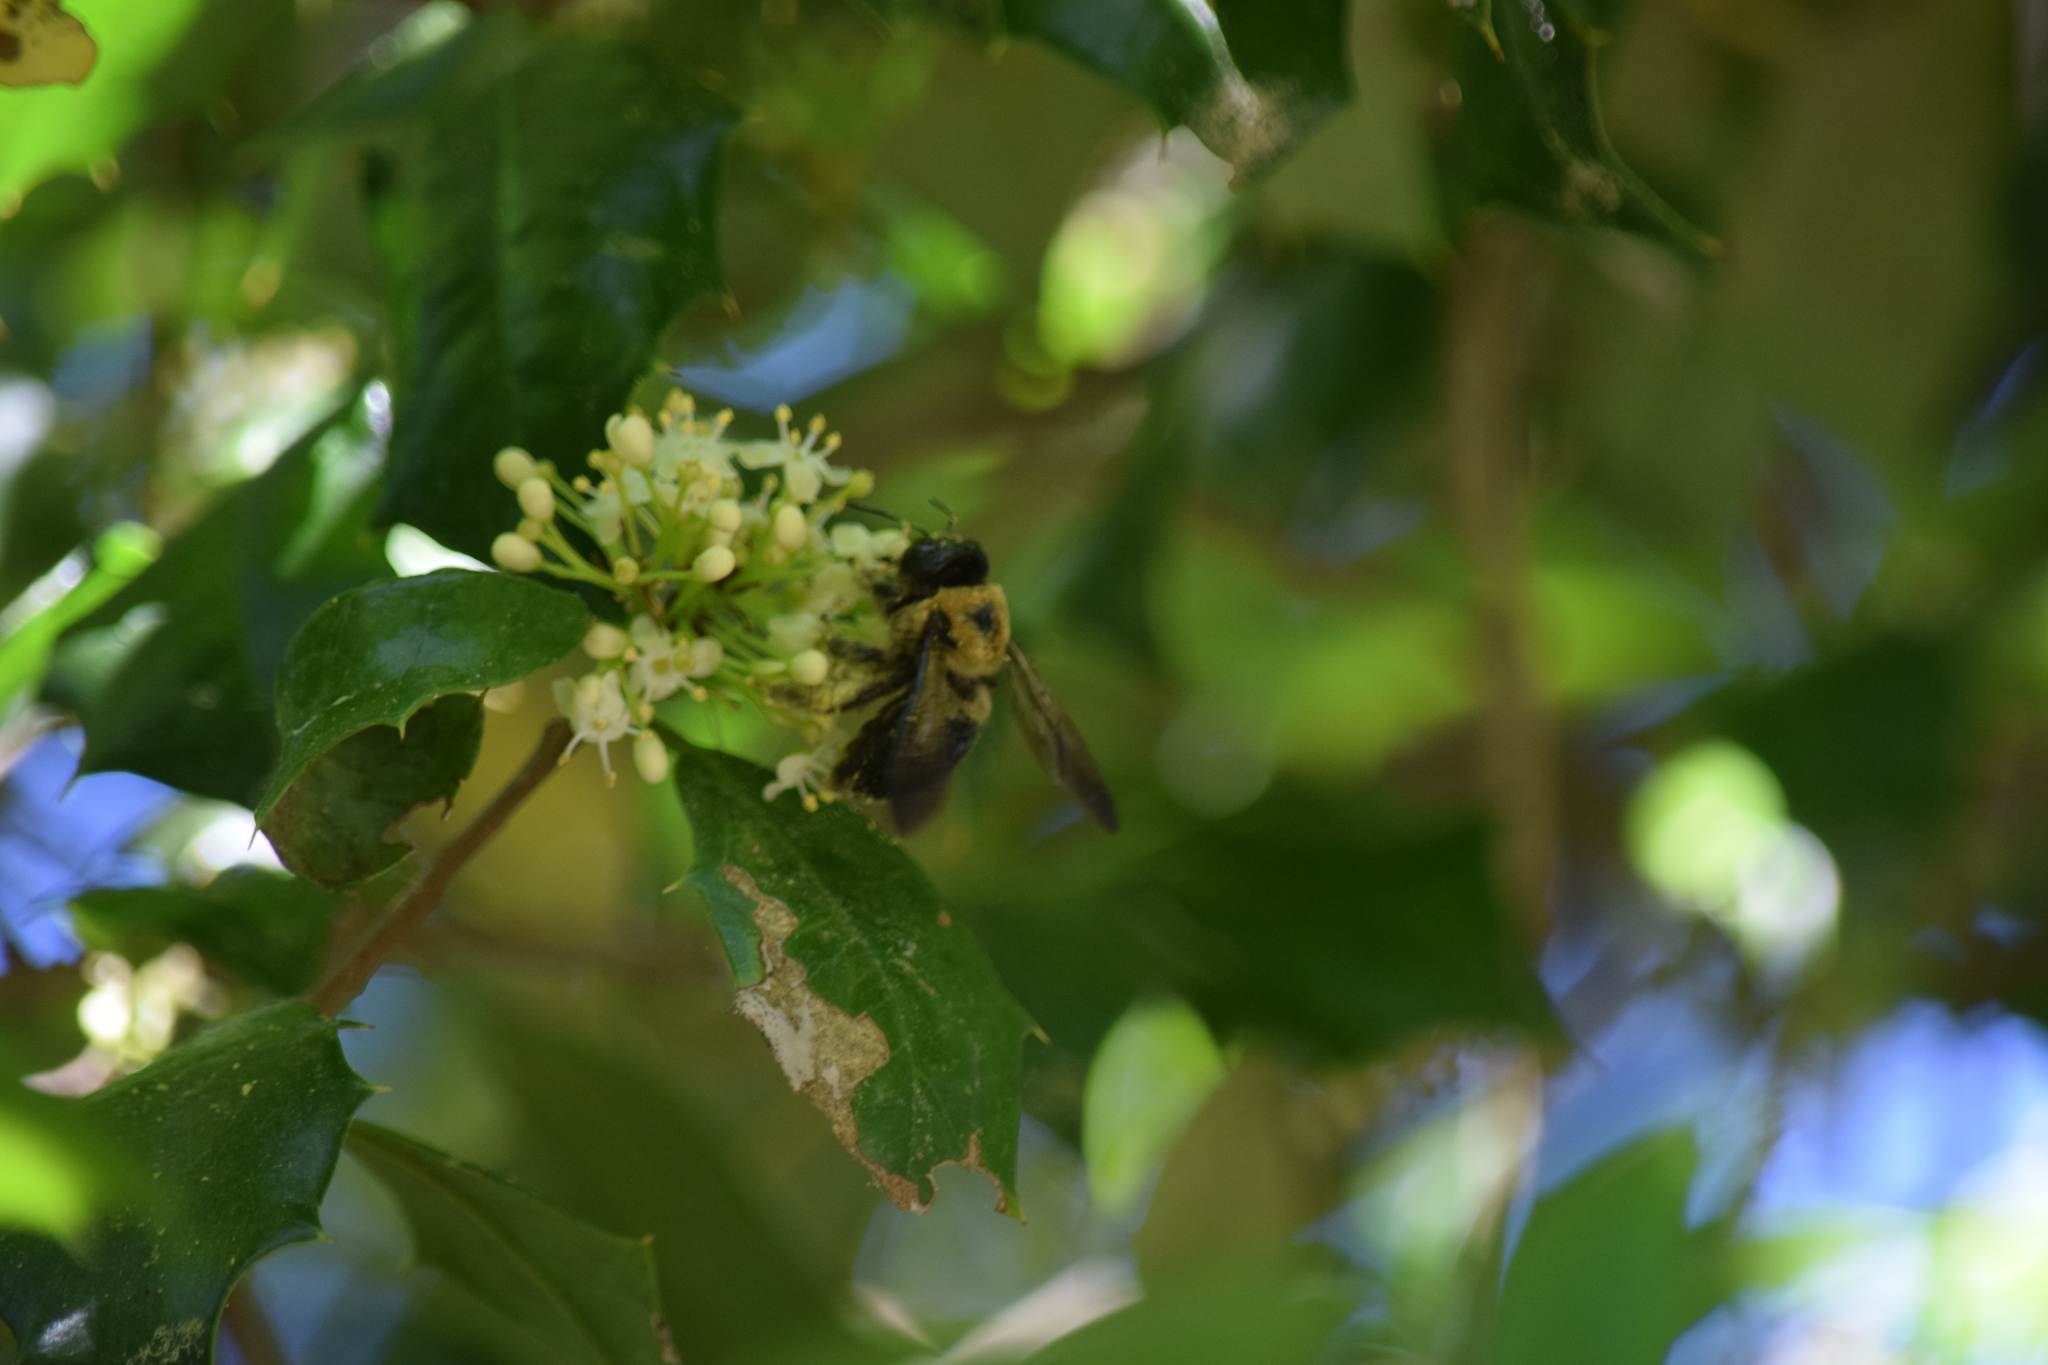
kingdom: Animalia
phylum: Arthropoda
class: Insecta
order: Hymenoptera
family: Apidae
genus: Xylocopa
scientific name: Xylocopa virginica
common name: Carpenter bee
